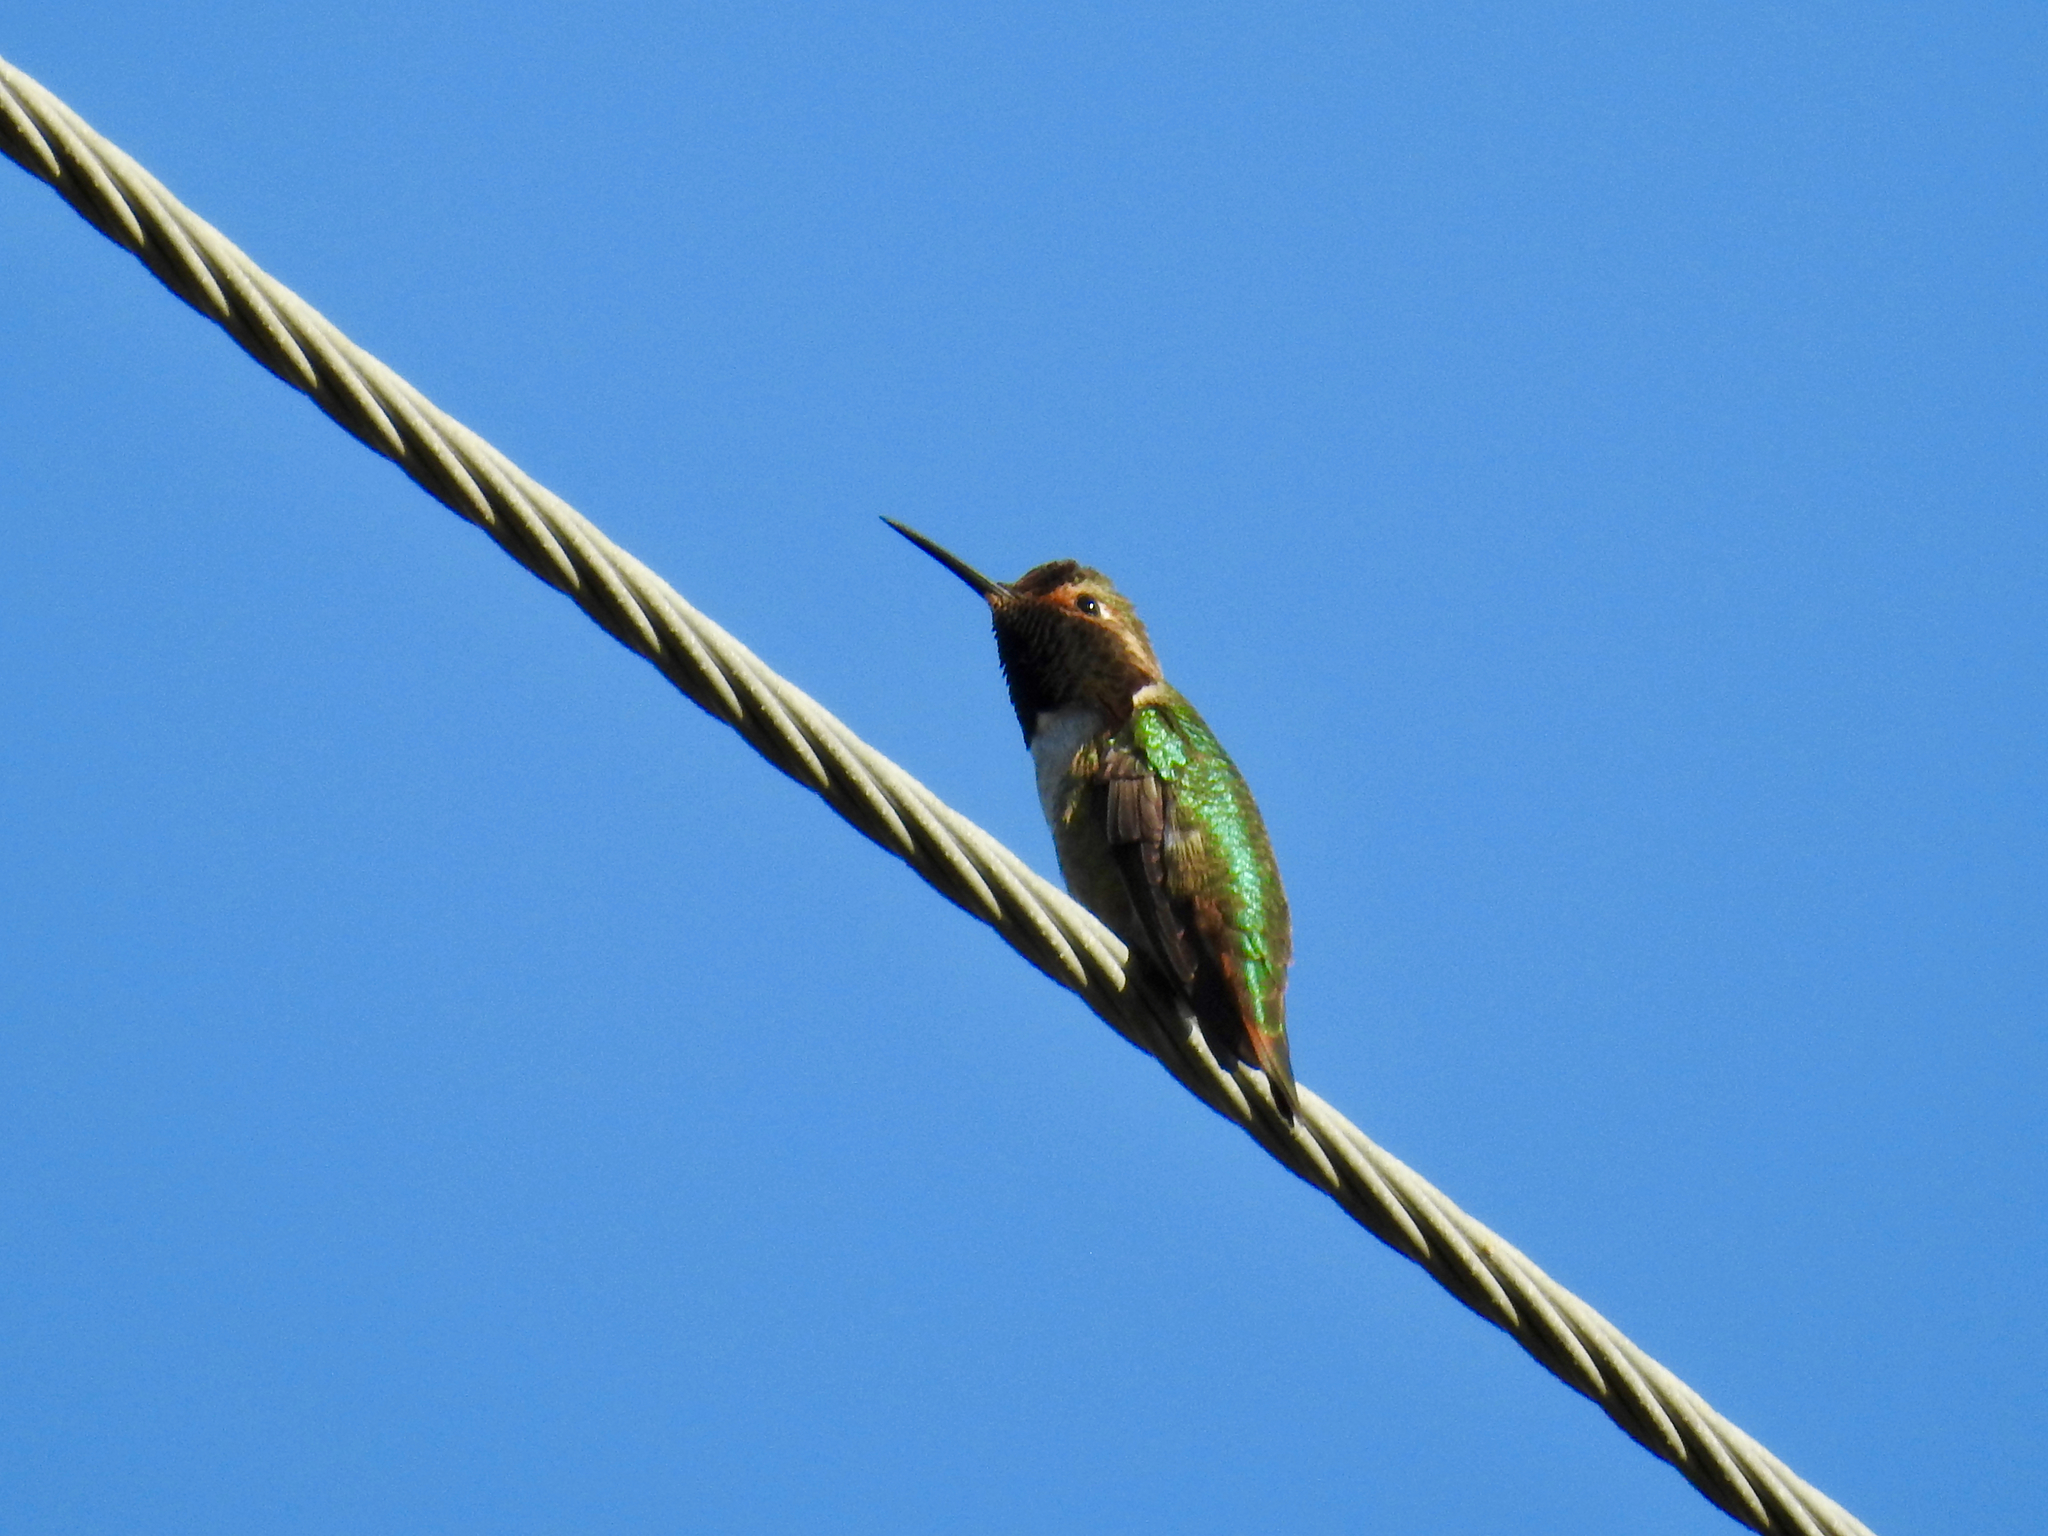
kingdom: Animalia
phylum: Chordata
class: Aves
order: Apodiformes
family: Trochilidae
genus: Selasphorus
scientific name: Selasphorus sasin
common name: Allen's hummingbird
